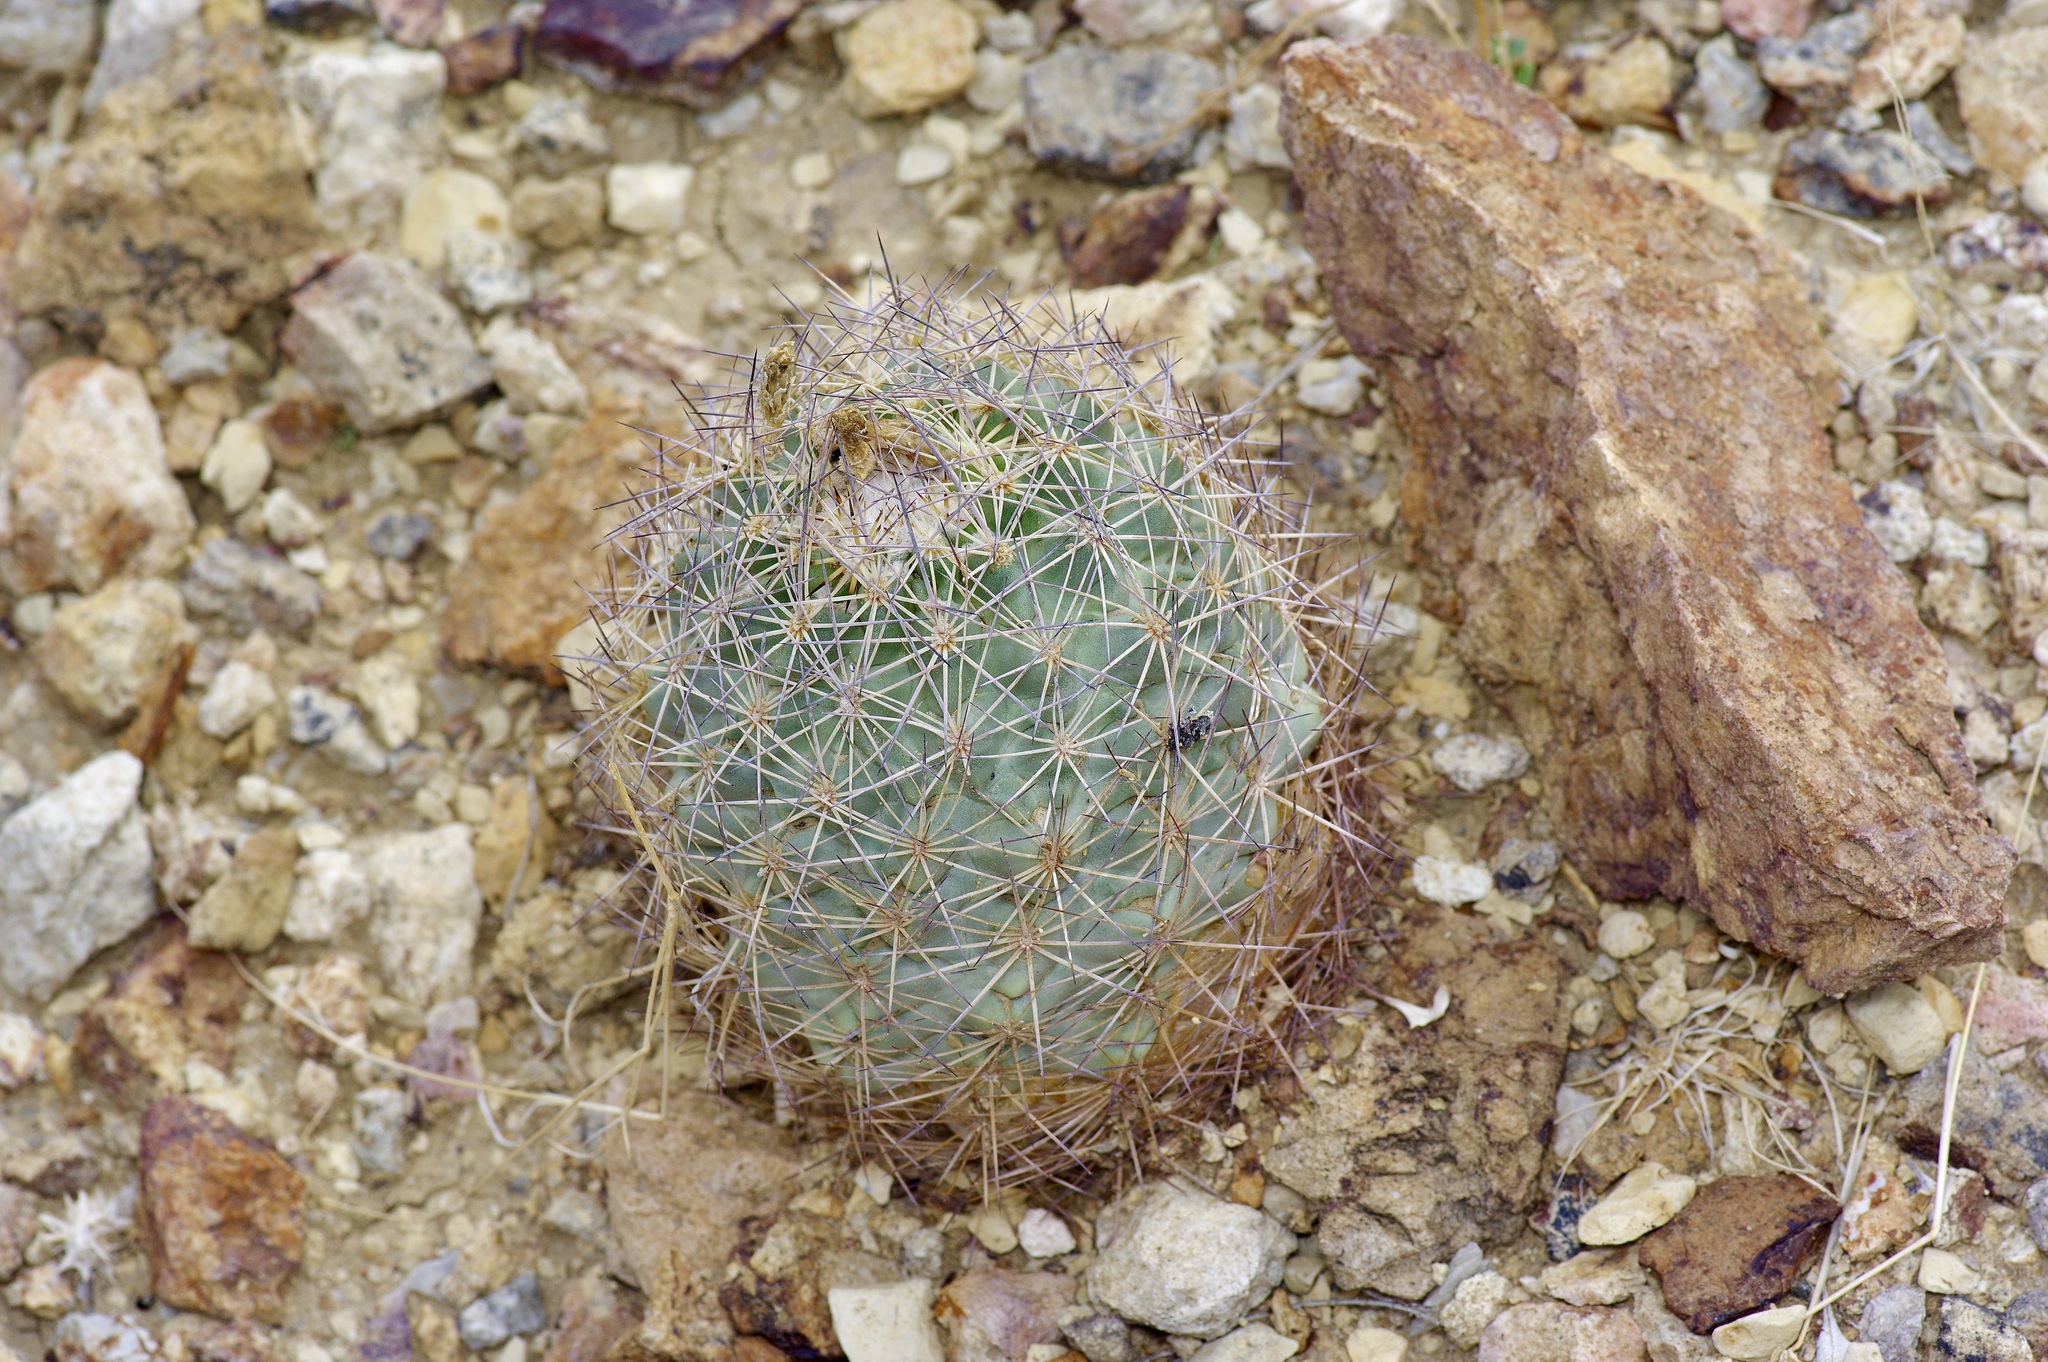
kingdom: Plantae
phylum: Tracheophyta
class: Magnoliopsida
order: Caryophyllales
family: Cactaceae
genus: Sclerocactus
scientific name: Sclerocactus warnockii
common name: Pineapple cactus
